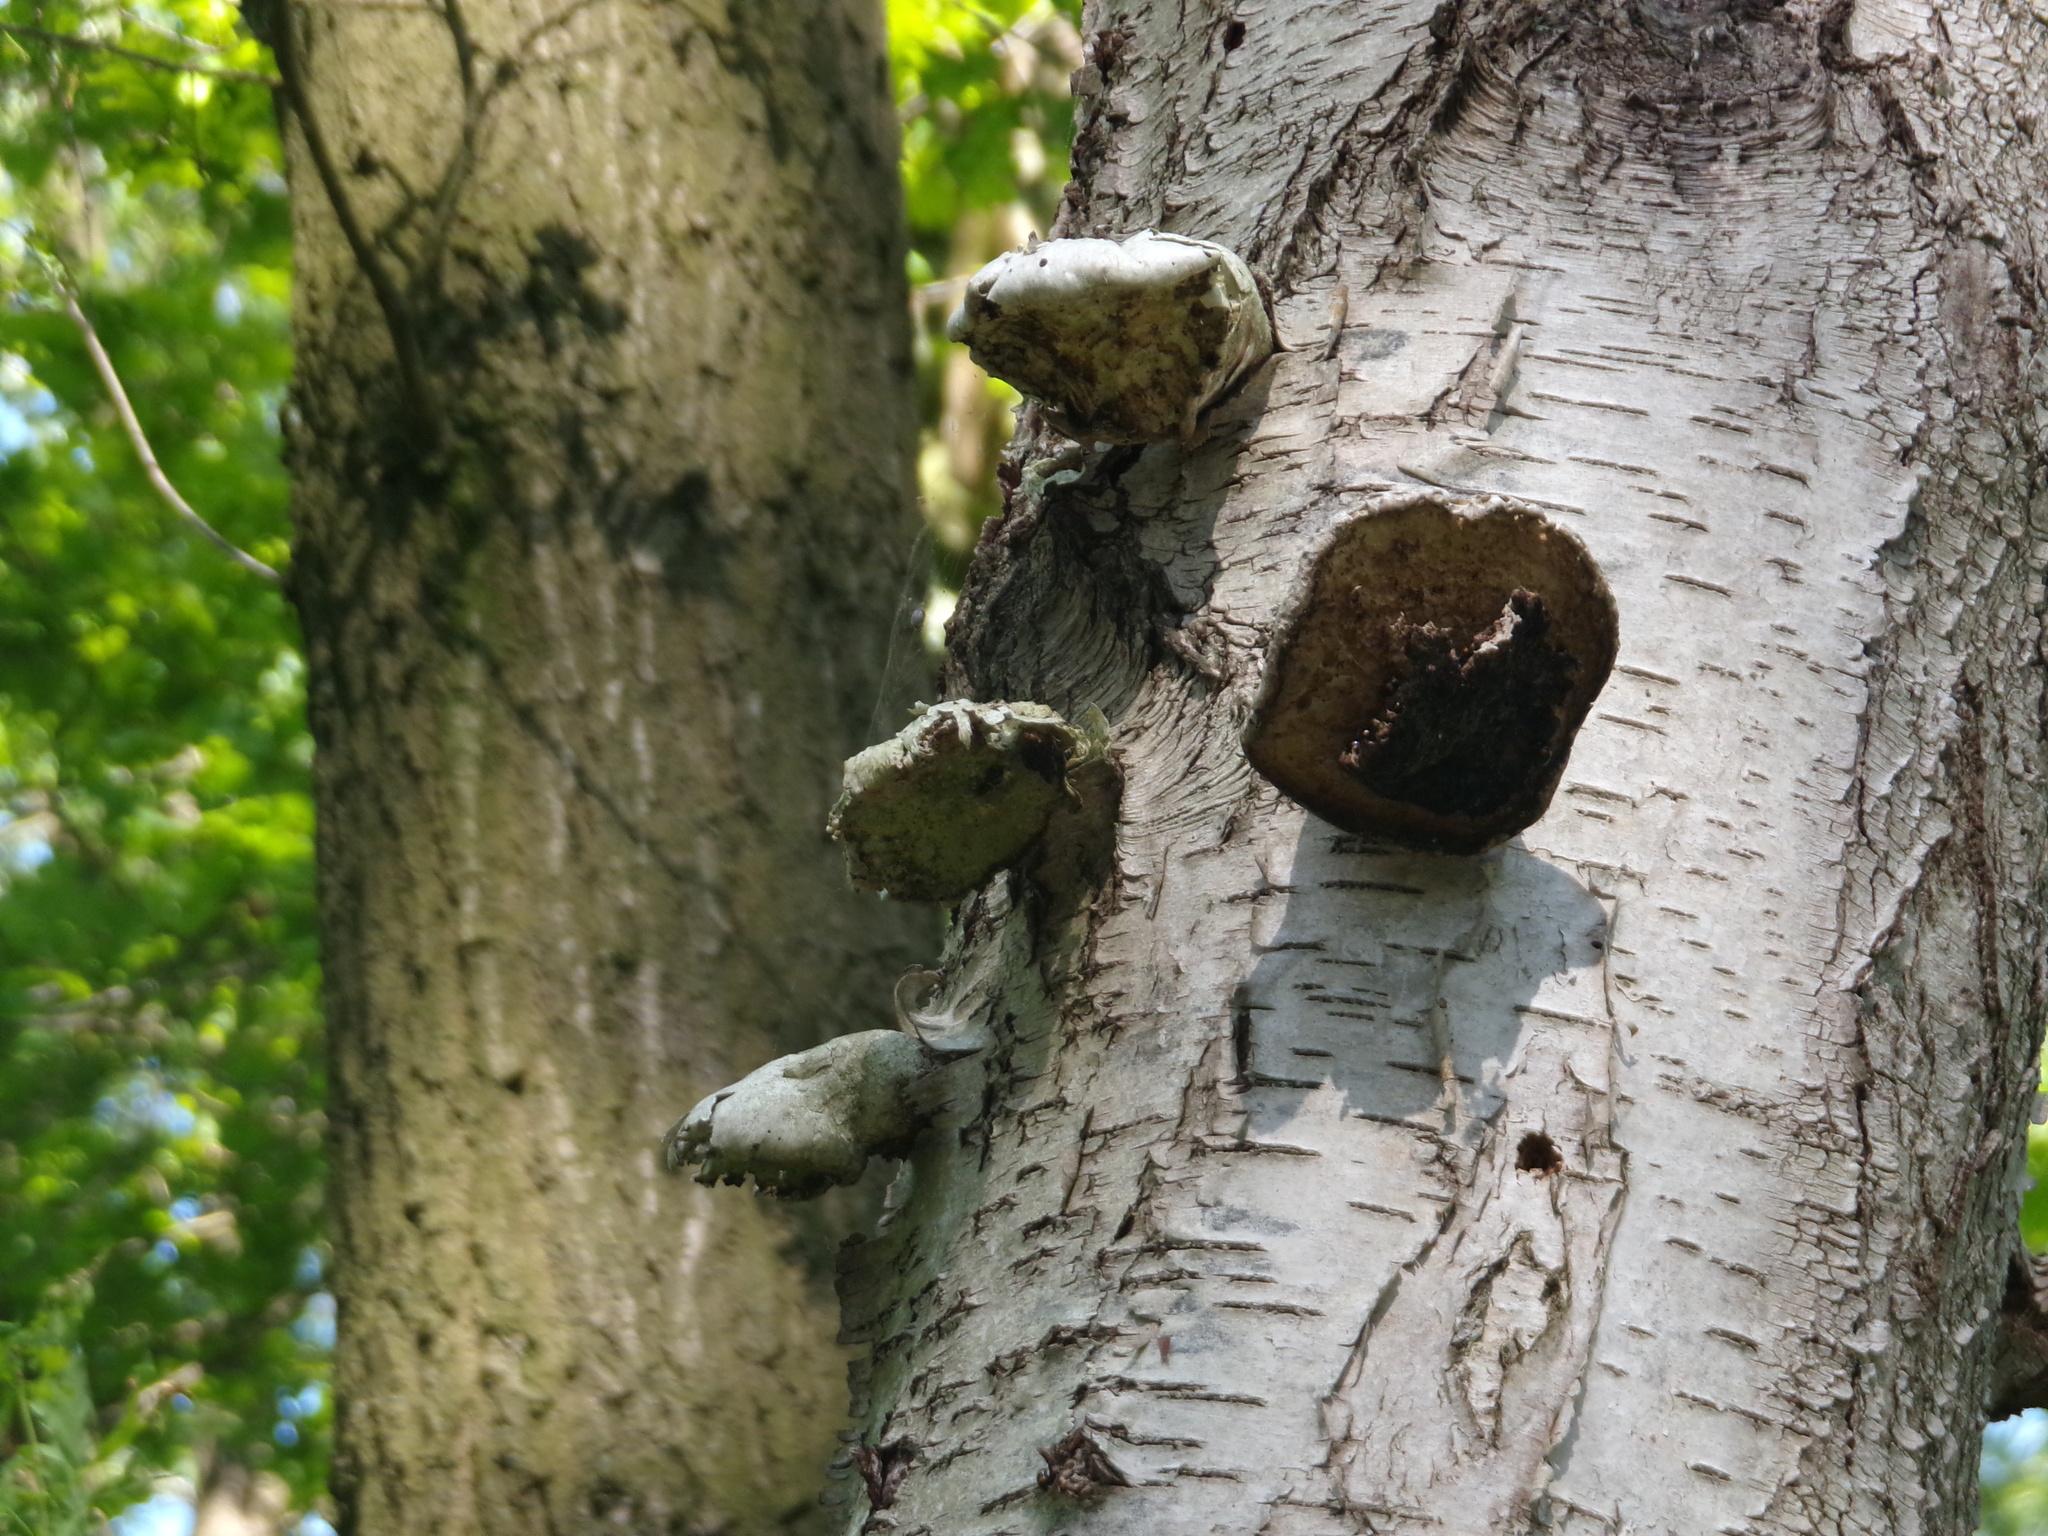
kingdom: Fungi
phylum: Basidiomycota
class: Agaricomycetes
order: Polyporales
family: Fomitopsidaceae
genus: Fomitopsis
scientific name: Fomitopsis betulina
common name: Birch polypore
